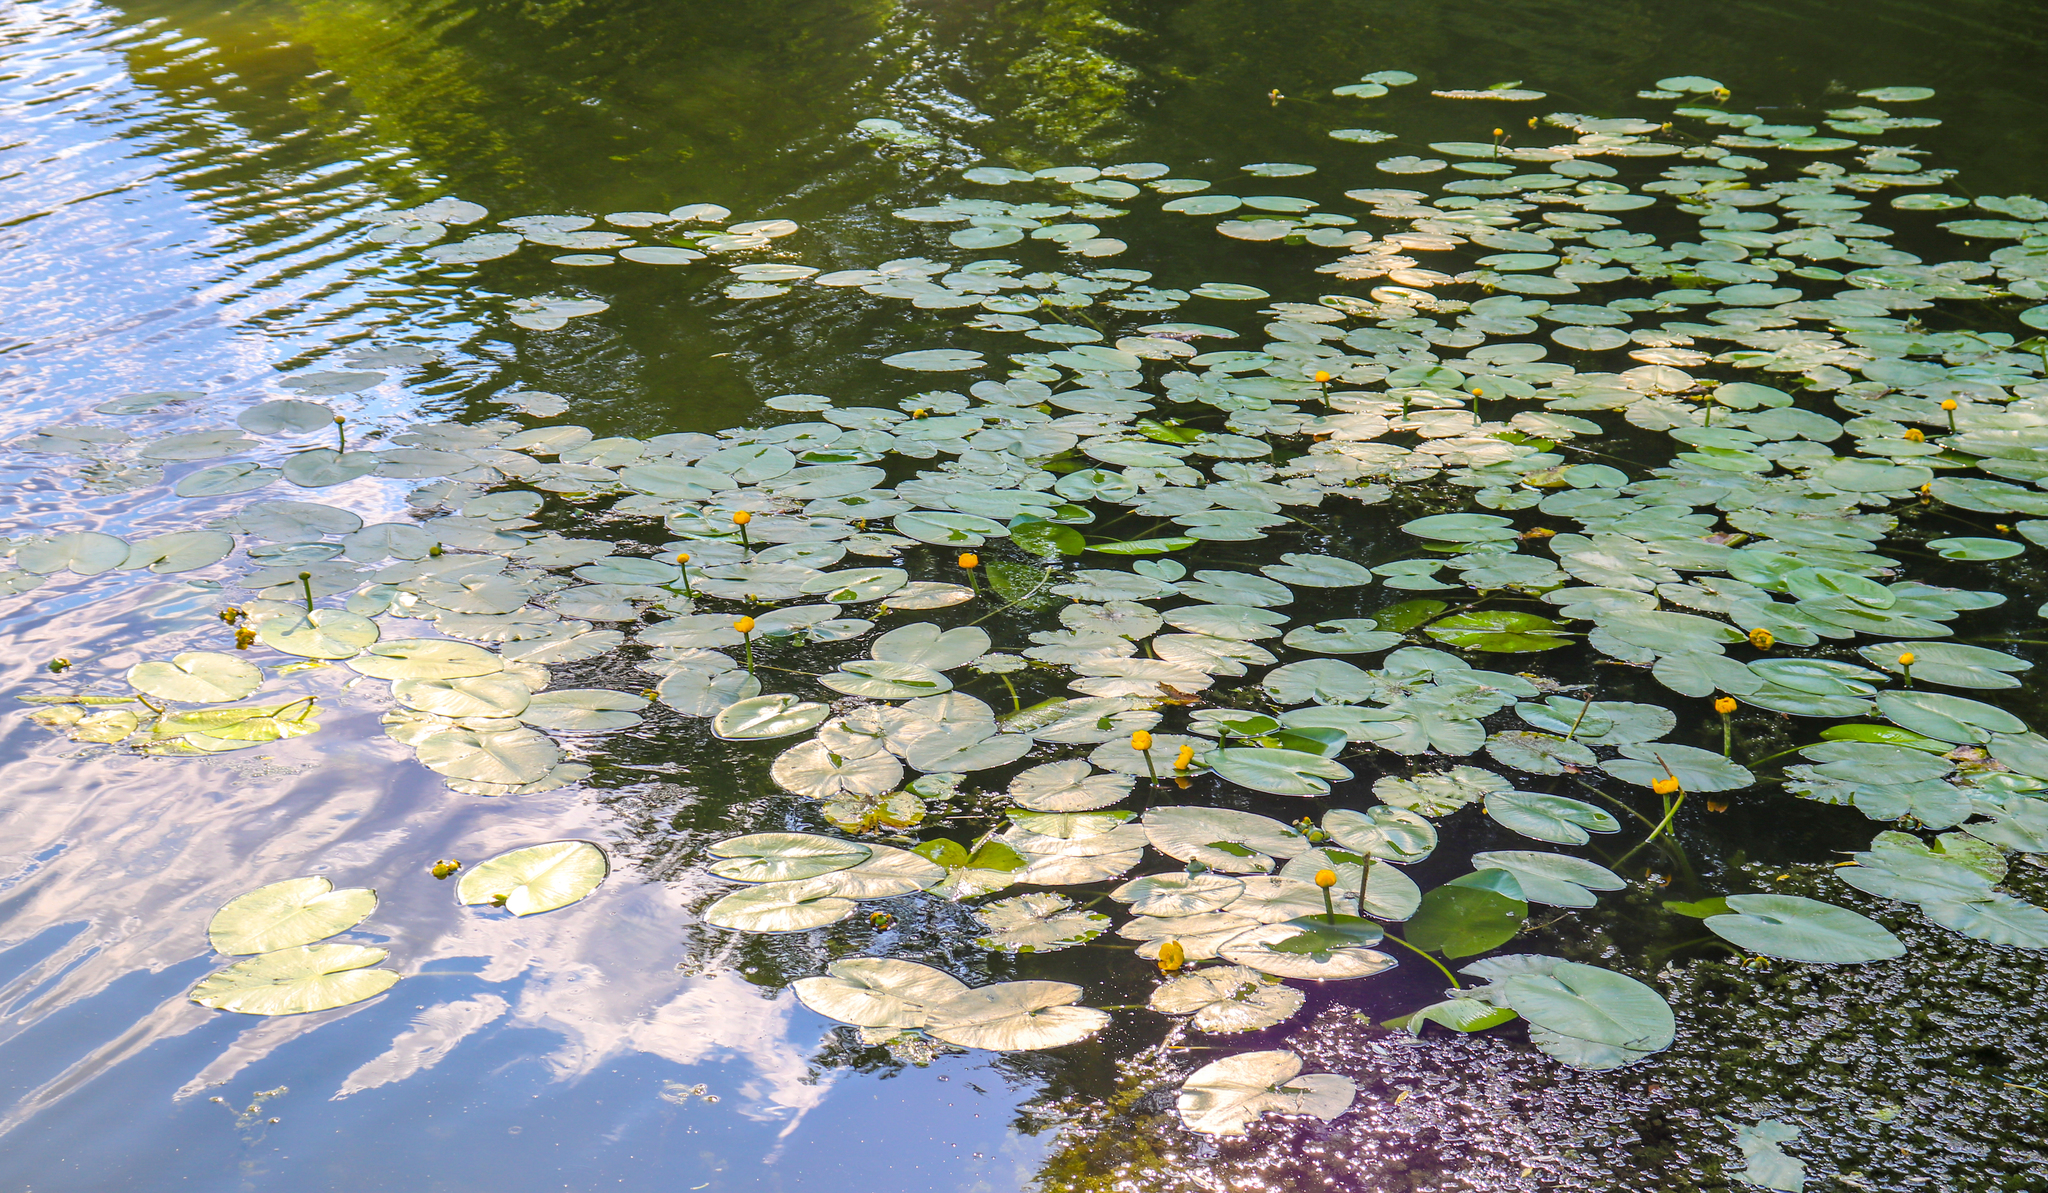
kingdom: Plantae
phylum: Tracheophyta
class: Magnoliopsida
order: Nymphaeales
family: Nymphaeaceae
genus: Nuphar
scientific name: Nuphar lutea
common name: Yellow water-lily
